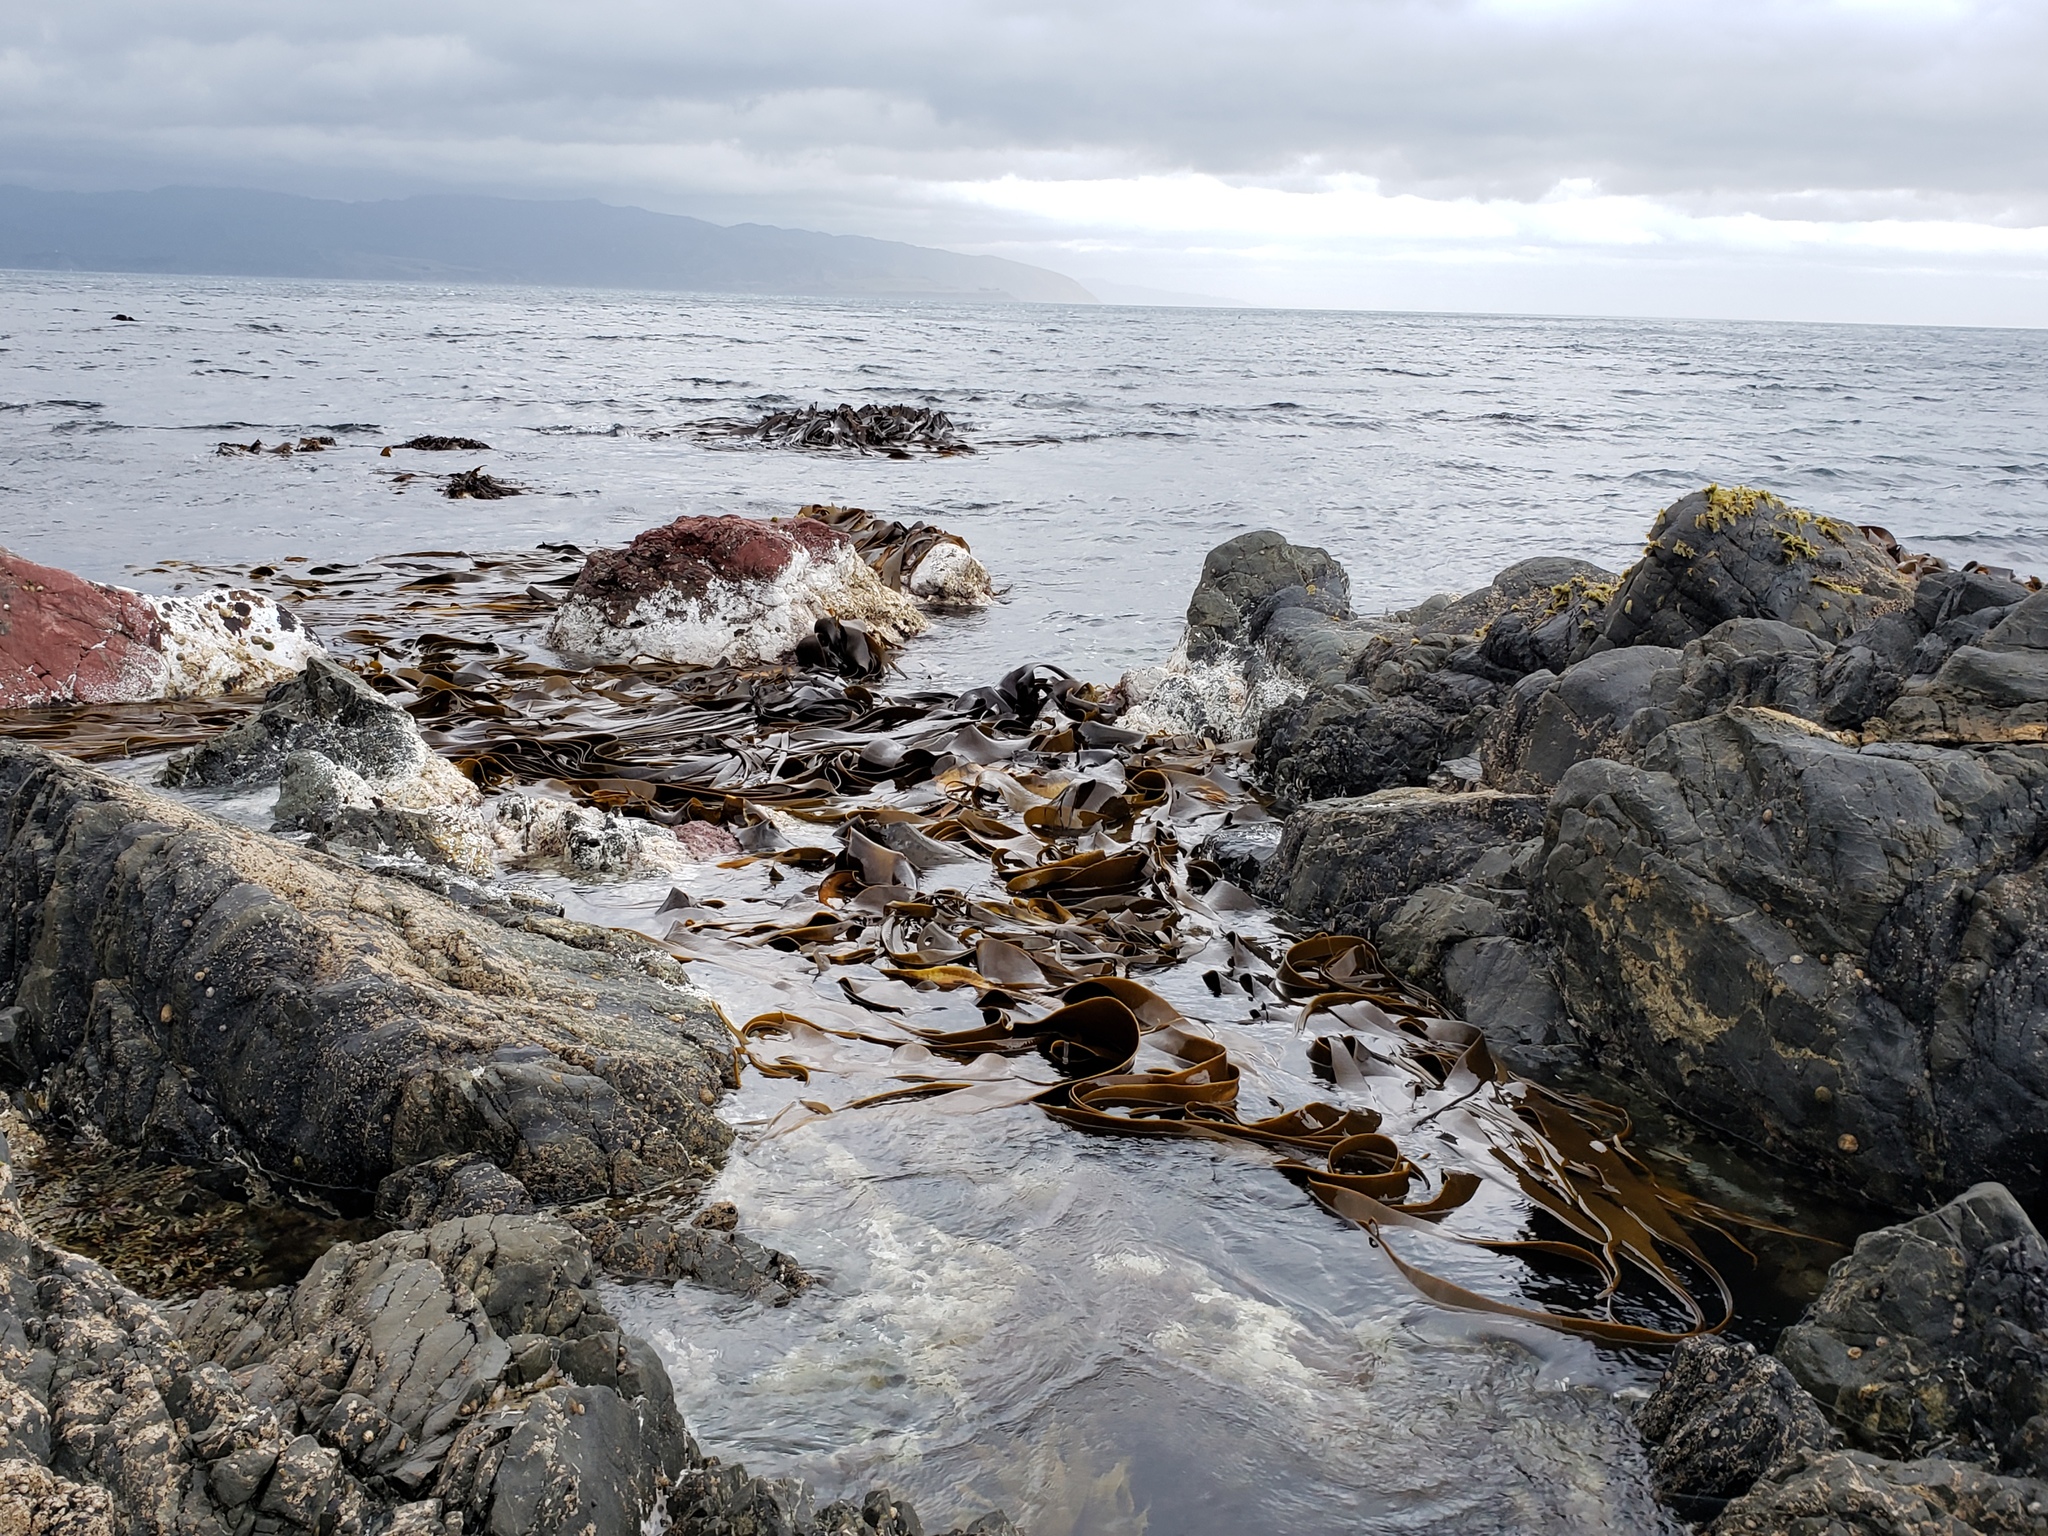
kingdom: Chromista
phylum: Ochrophyta
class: Phaeophyceae
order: Fucales
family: Durvillaeaceae
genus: Durvillaea
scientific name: Durvillaea antarctica
